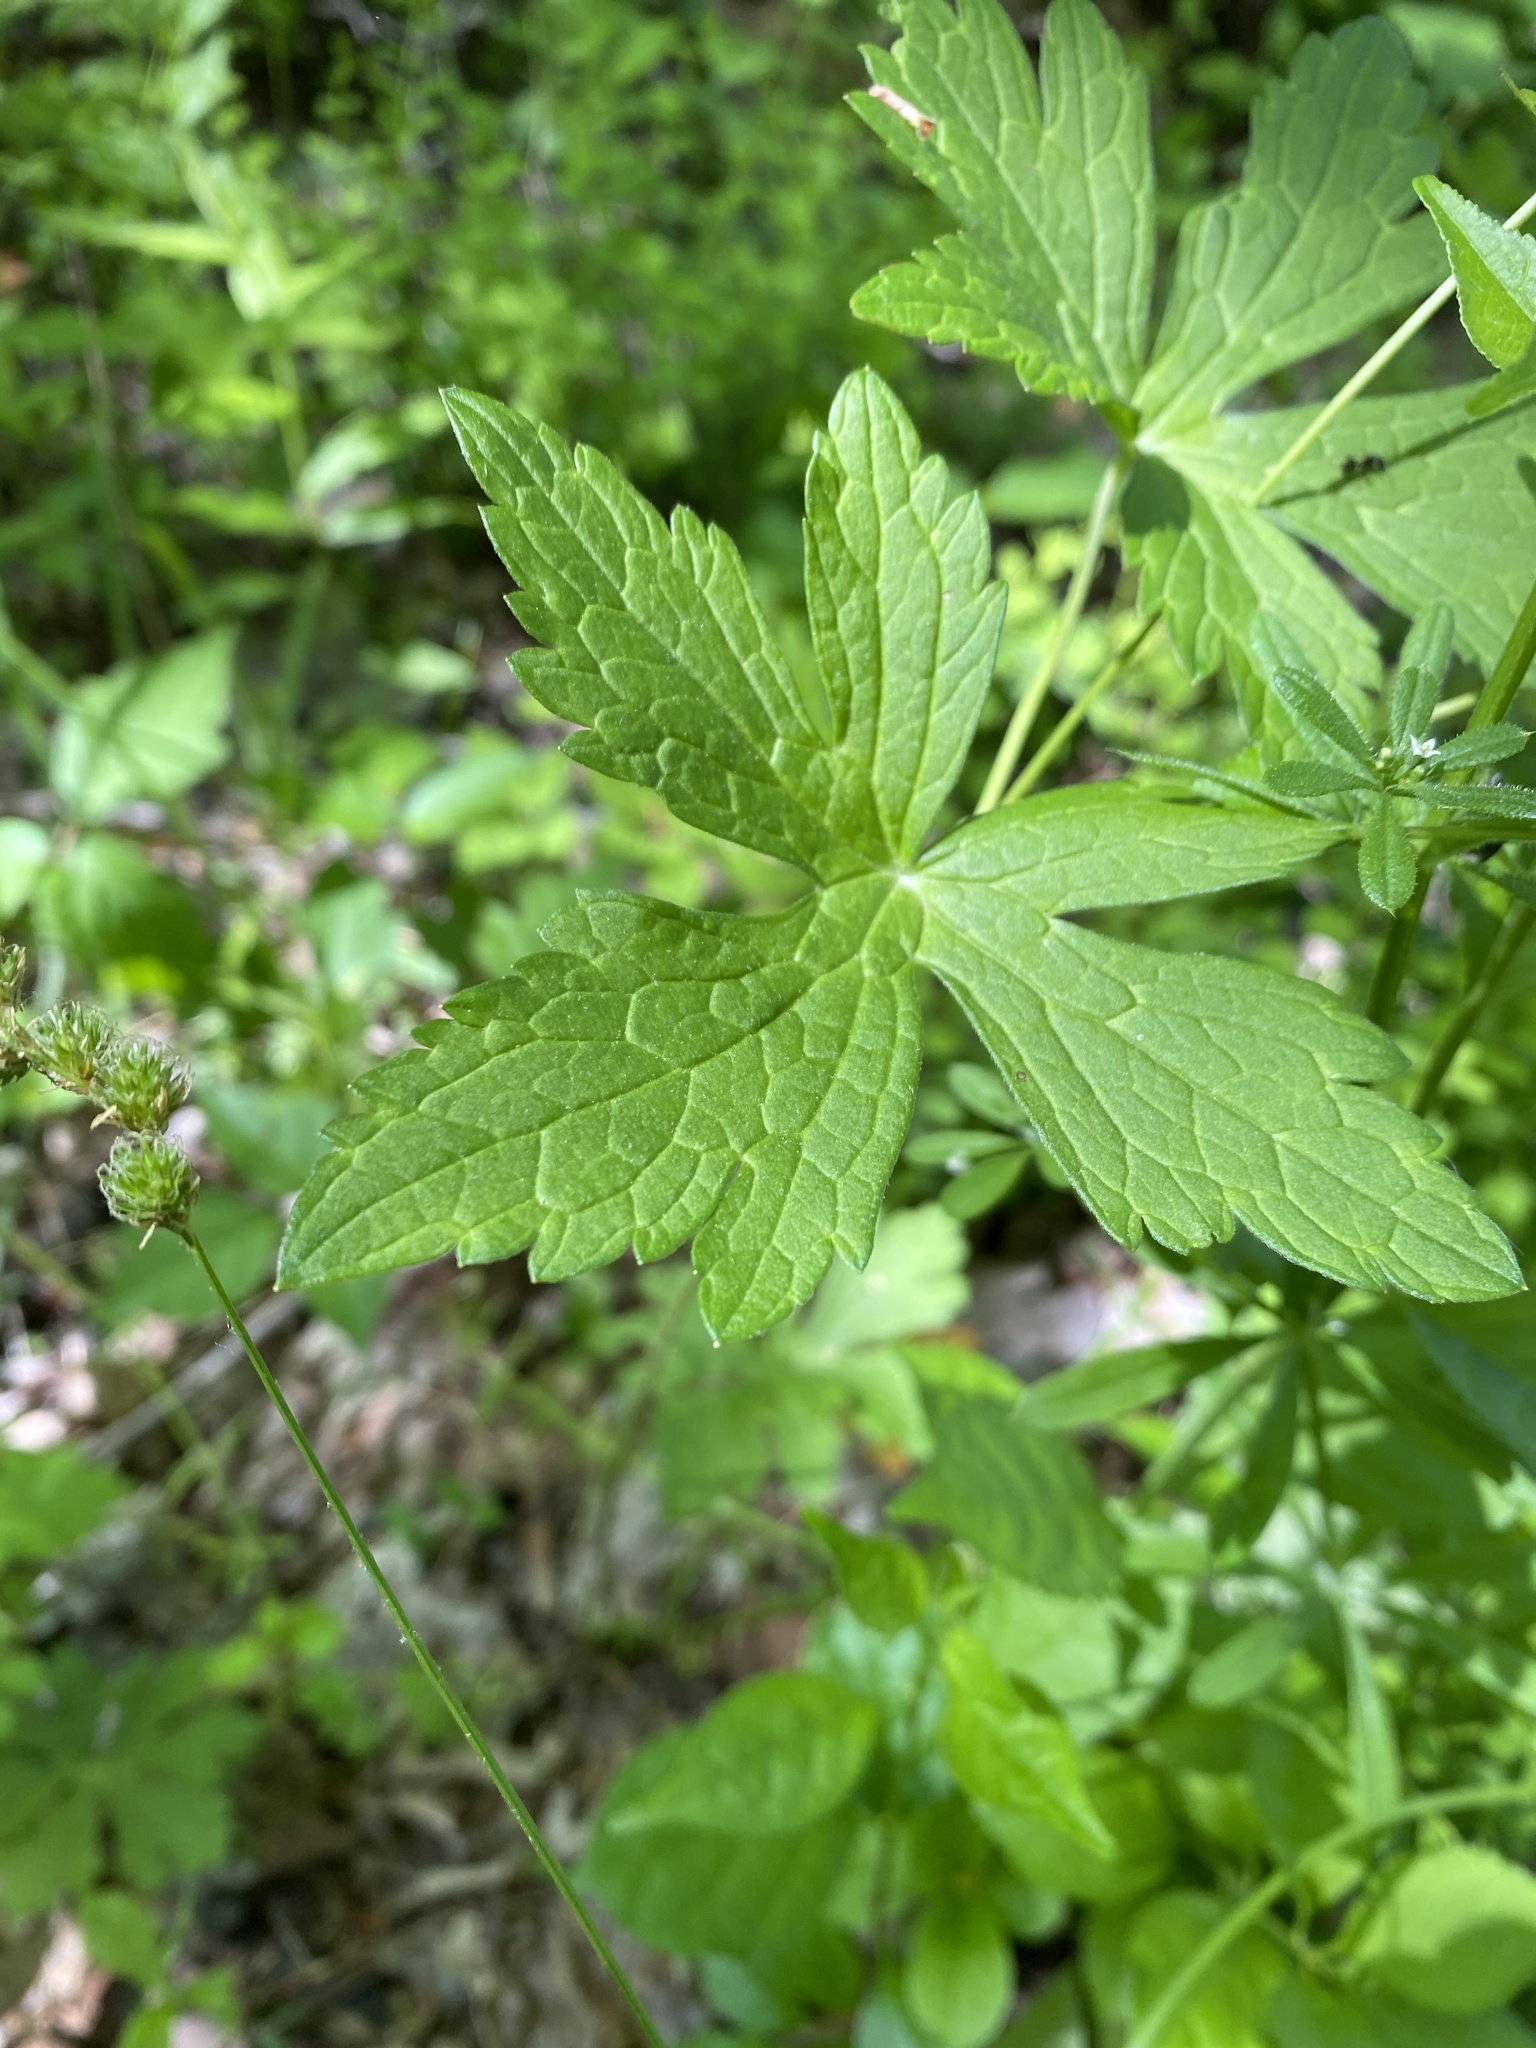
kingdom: Plantae
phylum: Tracheophyta
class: Magnoliopsida
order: Geraniales
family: Geraniaceae
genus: Geranium
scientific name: Geranium maculatum
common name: Spotted geranium
